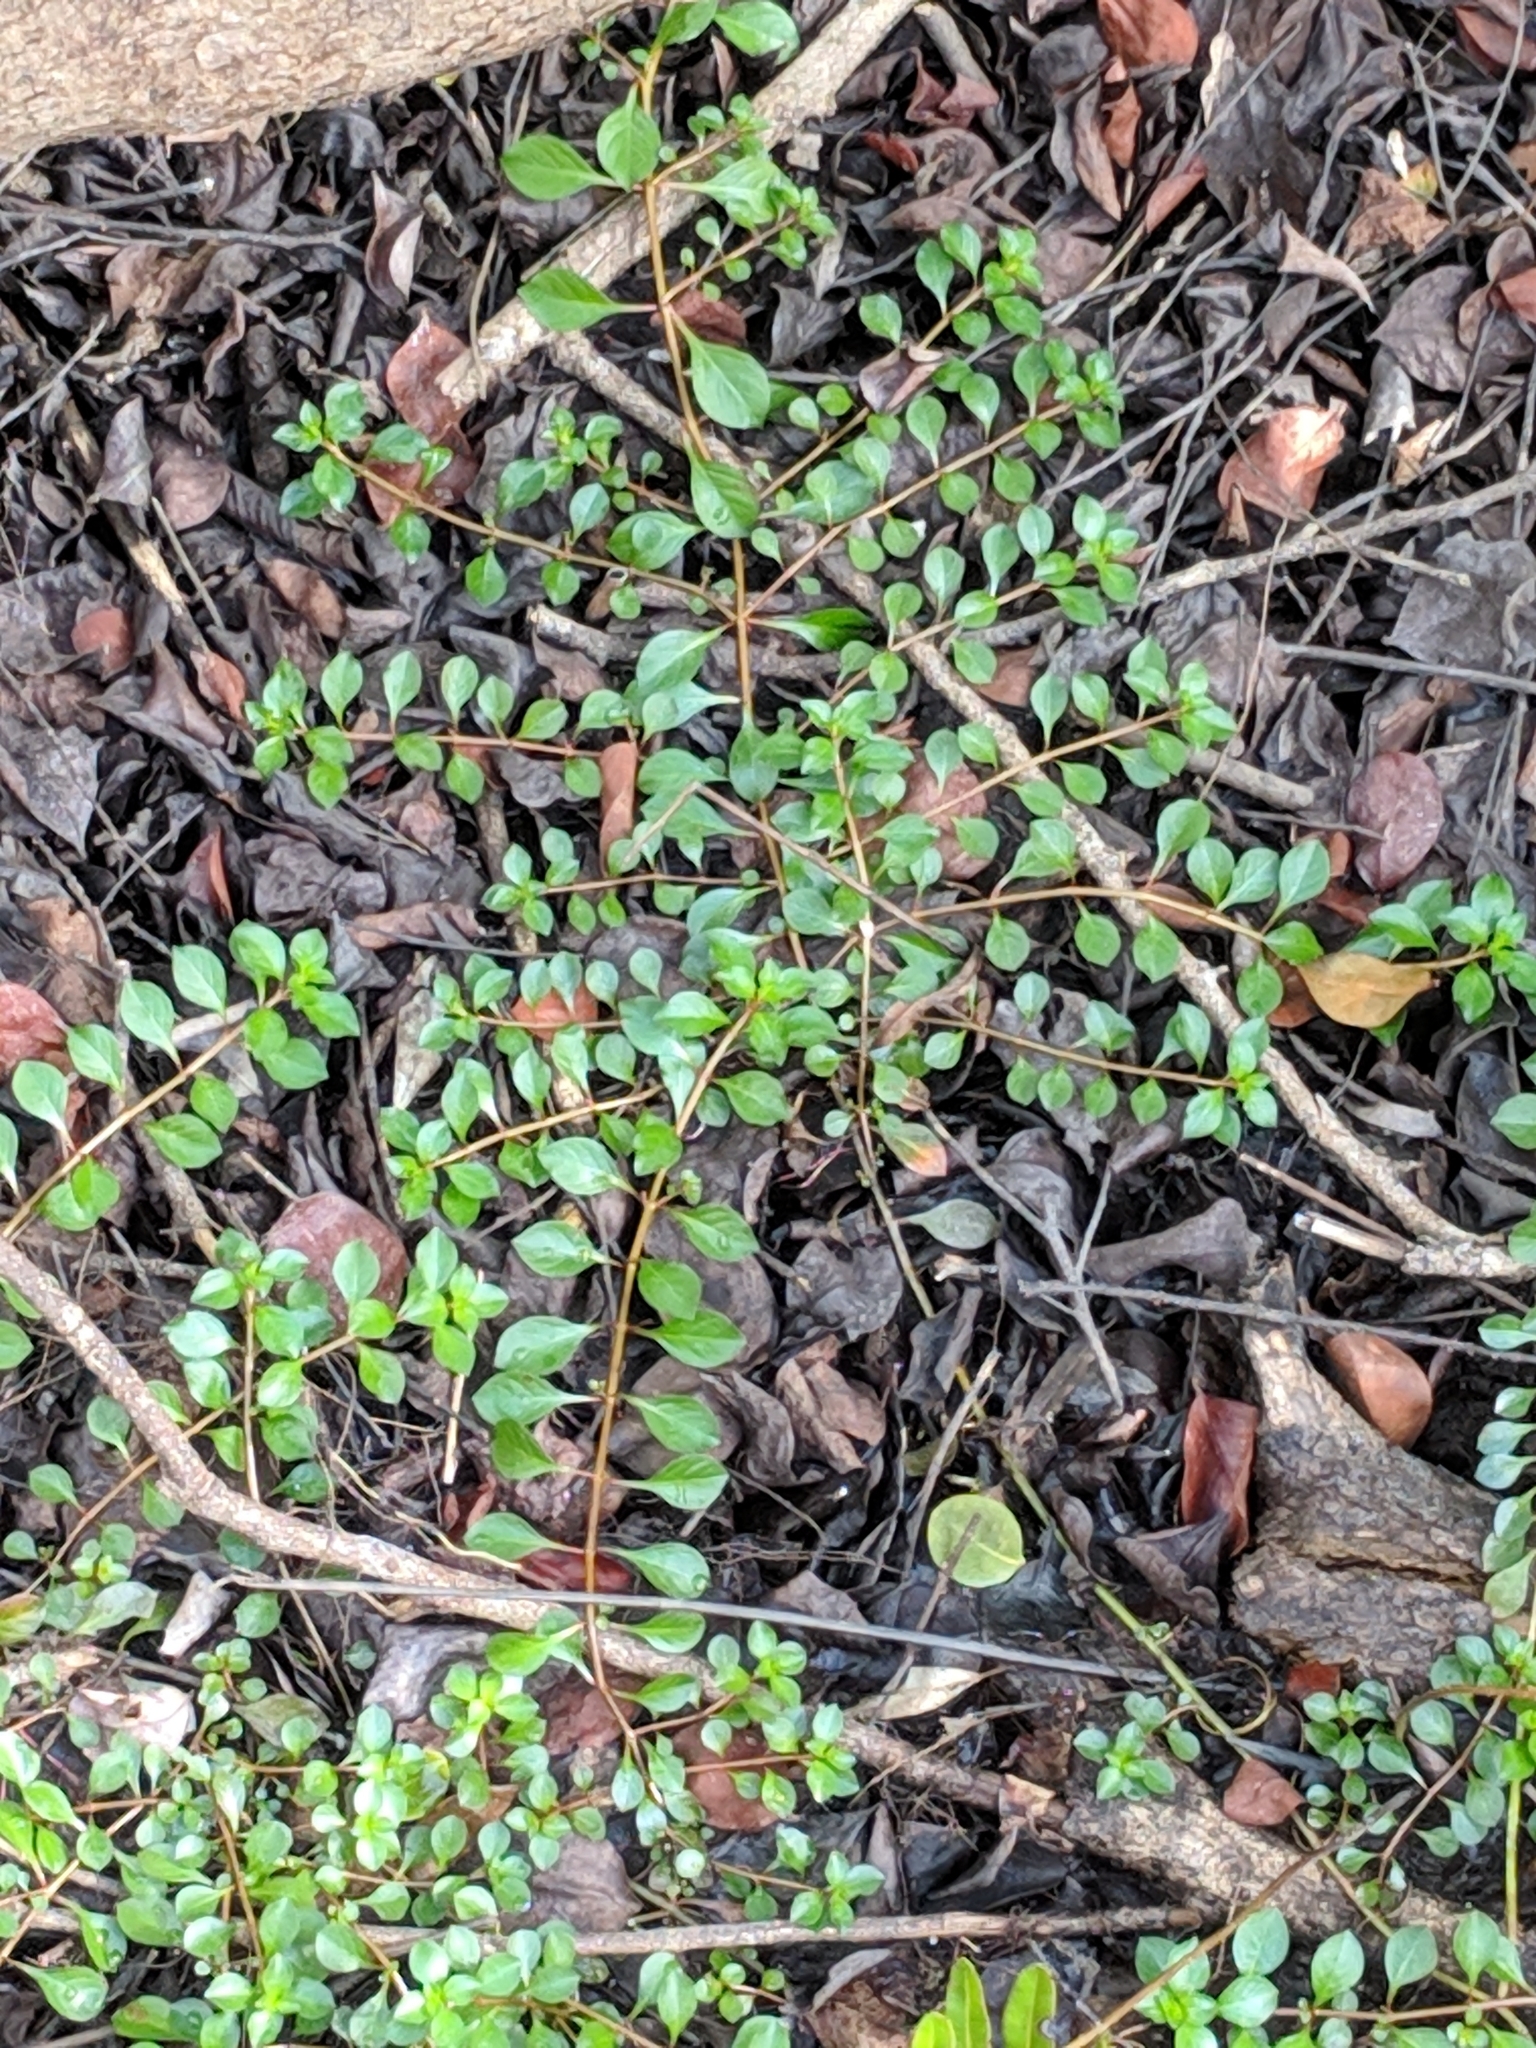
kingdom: Plantae
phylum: Tracheophyta
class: Magnoliopsida
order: Myrtales
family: Onagraceae
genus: Ludwigia
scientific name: Ludwigia repens
